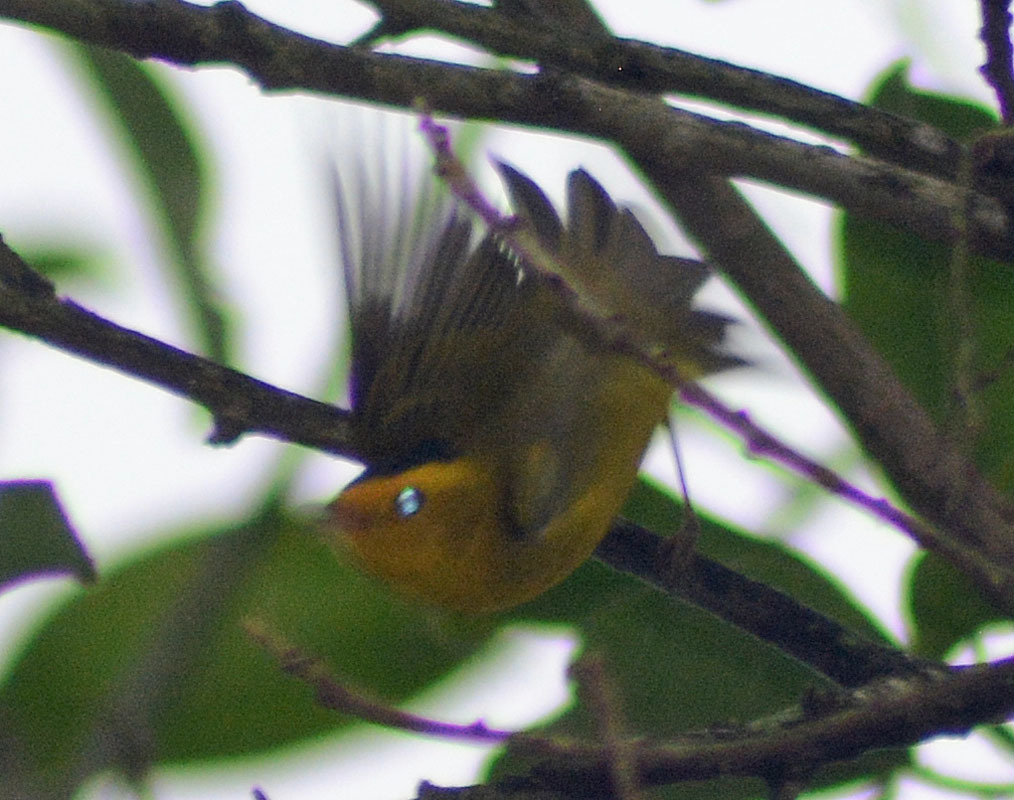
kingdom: Animalia
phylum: Chordata
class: Aves
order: Passeriformes
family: Parulidae
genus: Cardellina
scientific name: Cardellina pusilla
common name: Wilson's warbler
